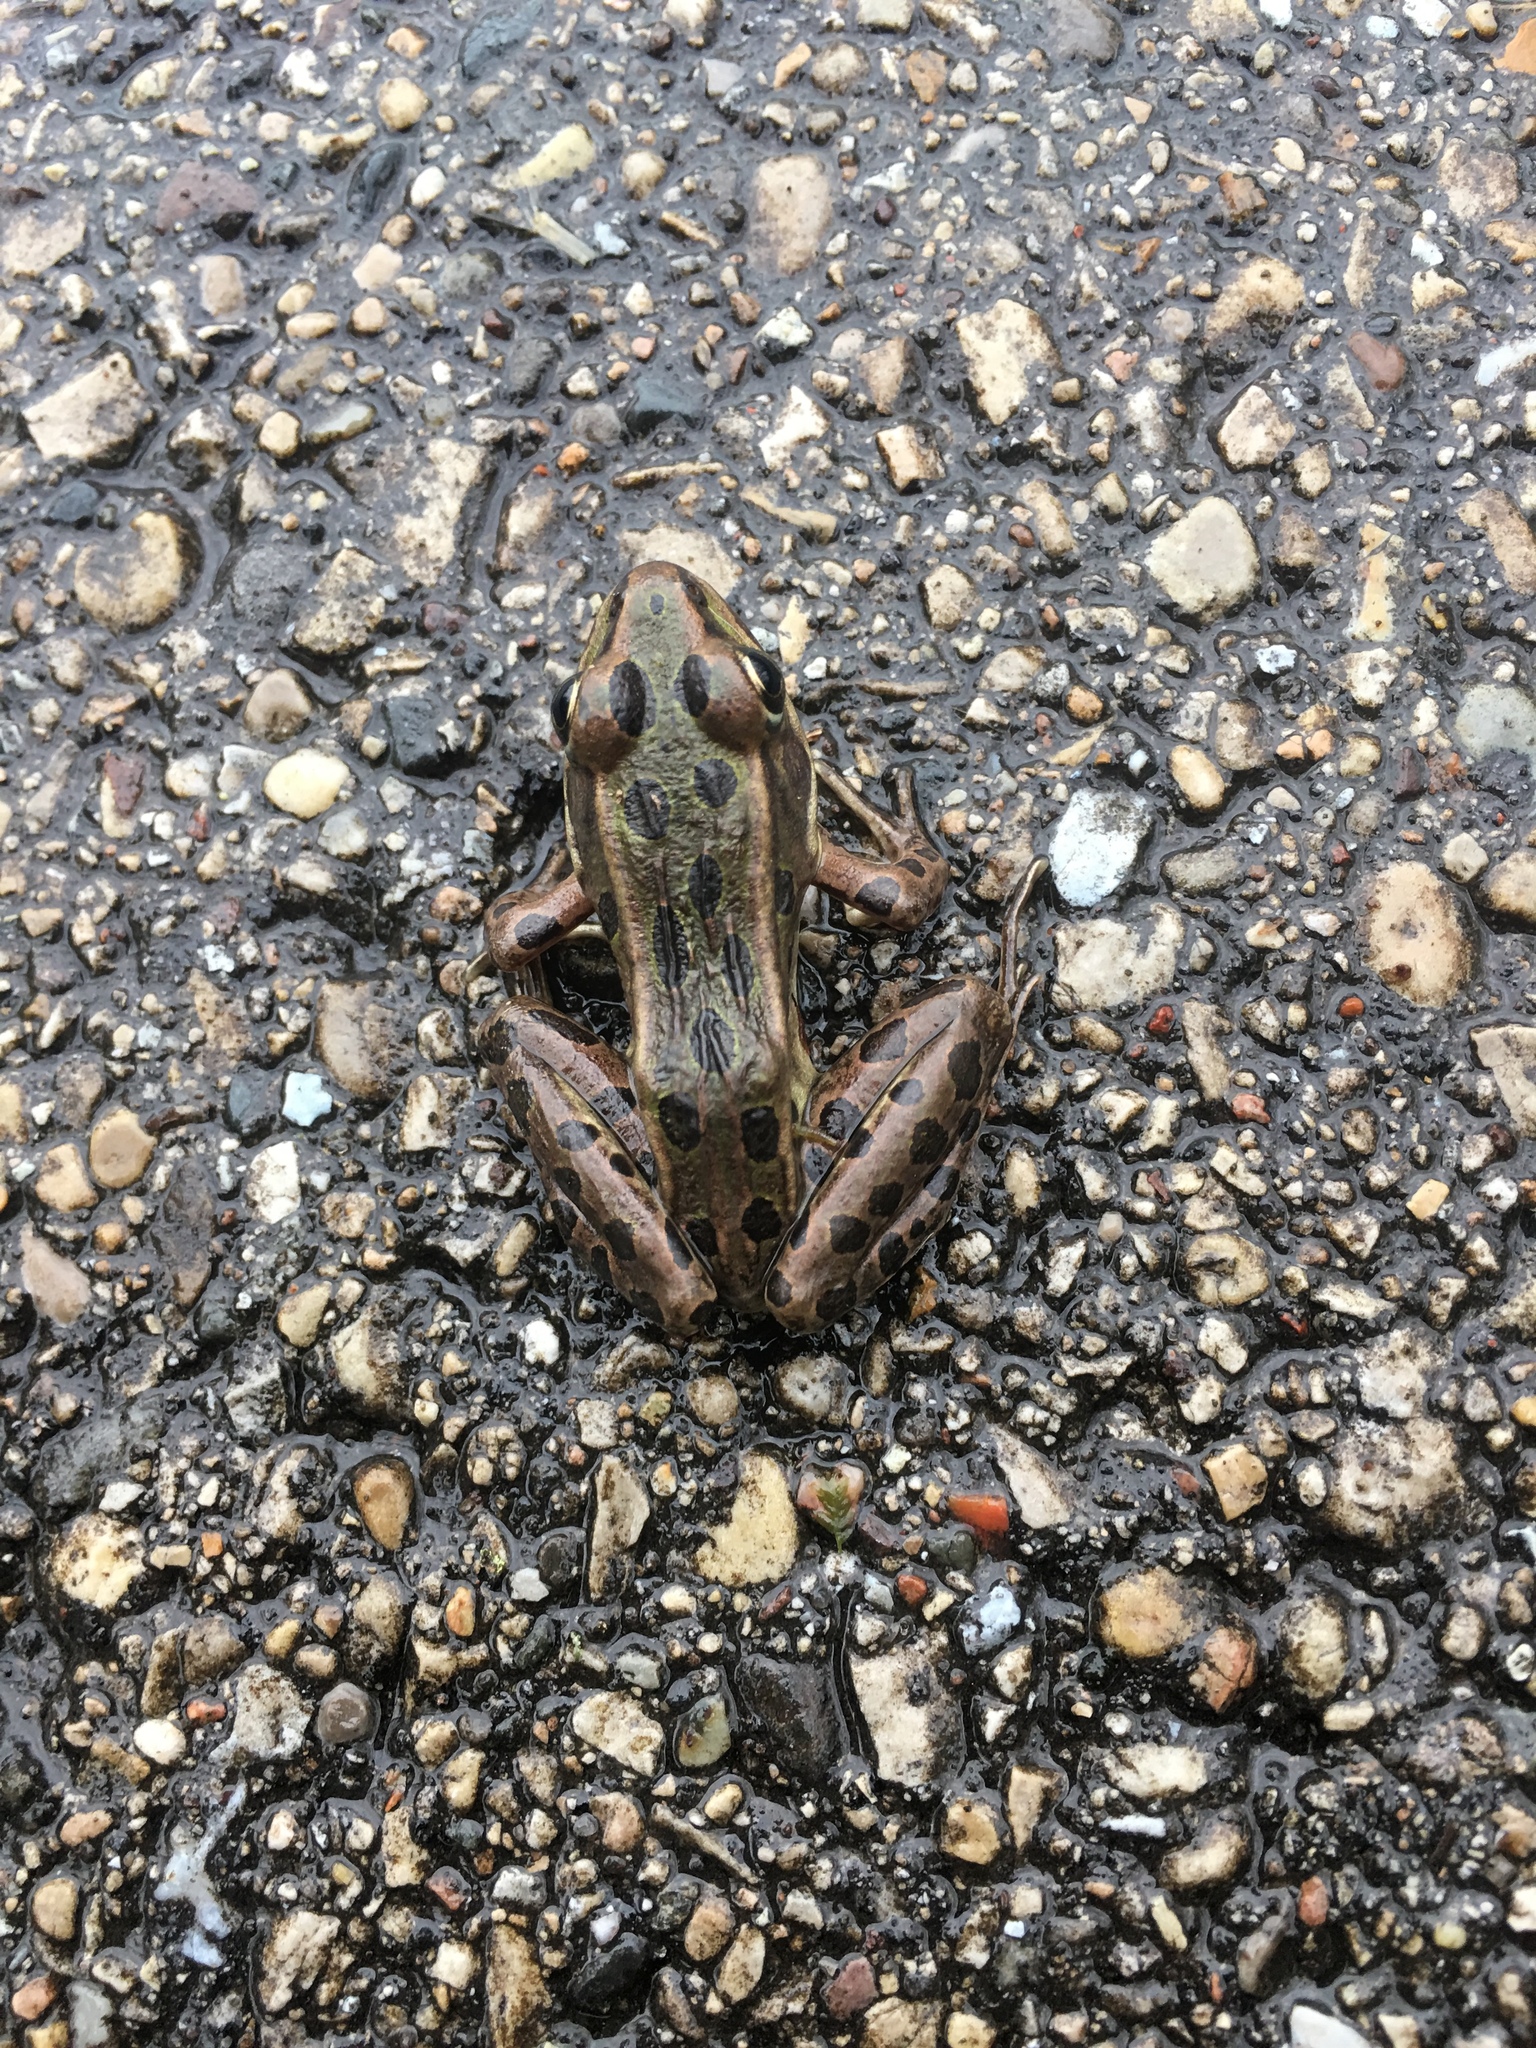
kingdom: Animalia
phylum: Chordata
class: Amphibia
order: Anura
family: Ranidae
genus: Lithobates
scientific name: Lithobates pipiens
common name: Northern leopard frog
